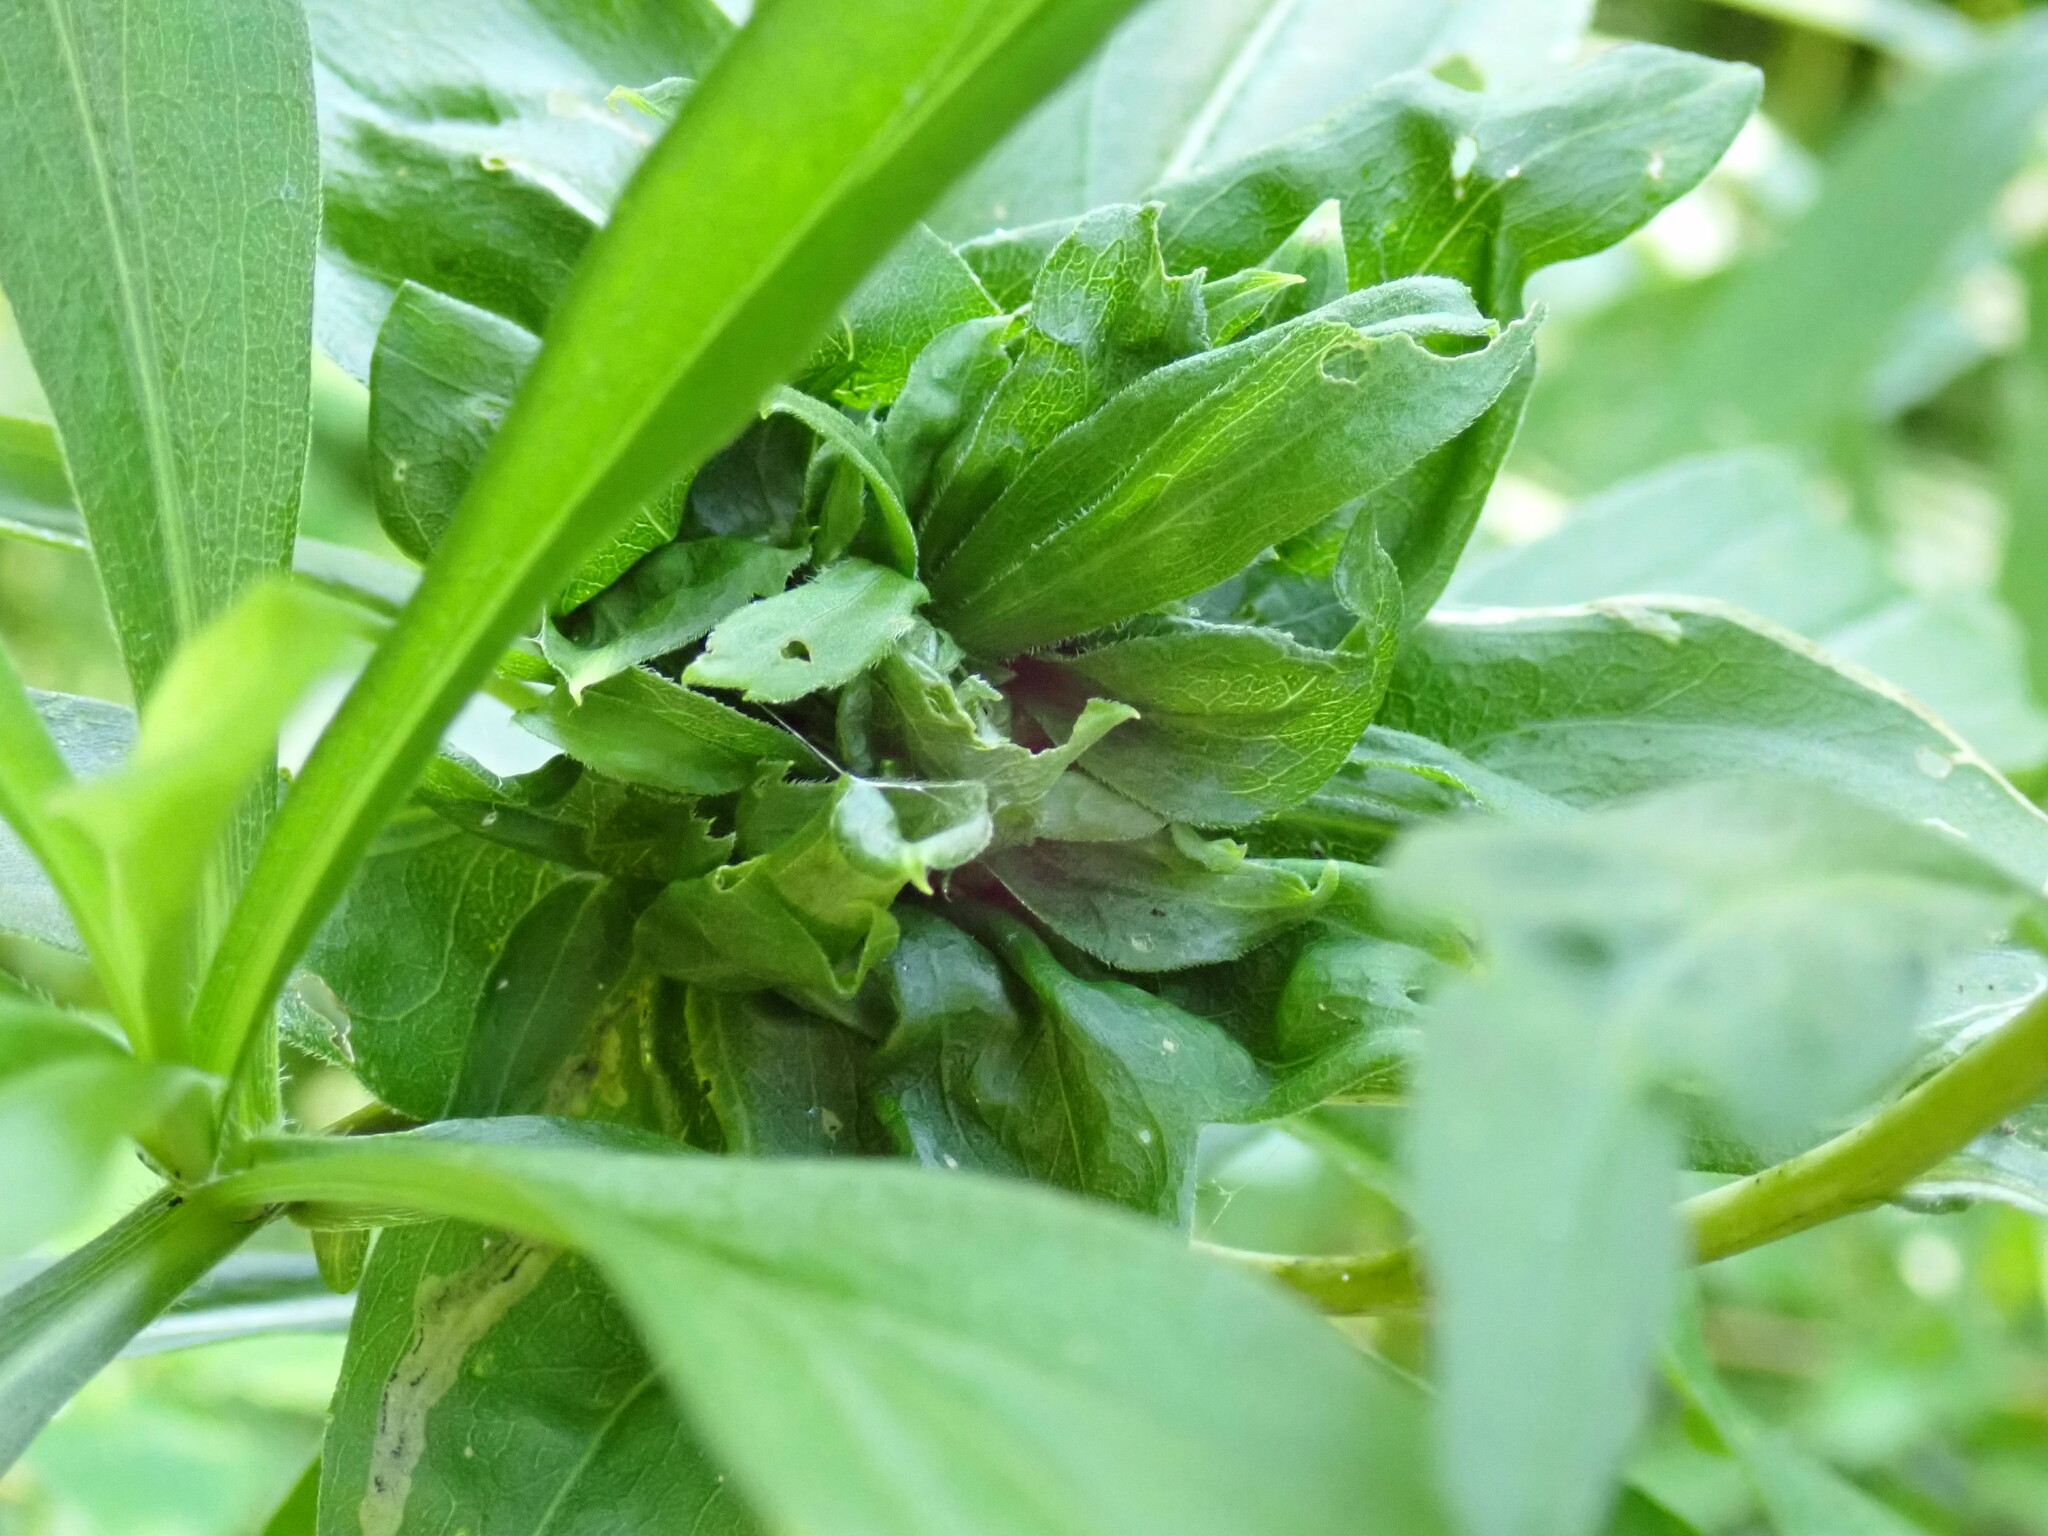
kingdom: Animalia
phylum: Arthropoda
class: Insecta
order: Diptera
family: Cecidomyiidae
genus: Rhopalomyia
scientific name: Rhopalomyia capitata
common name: Giant goldenrod bunch gall midge
